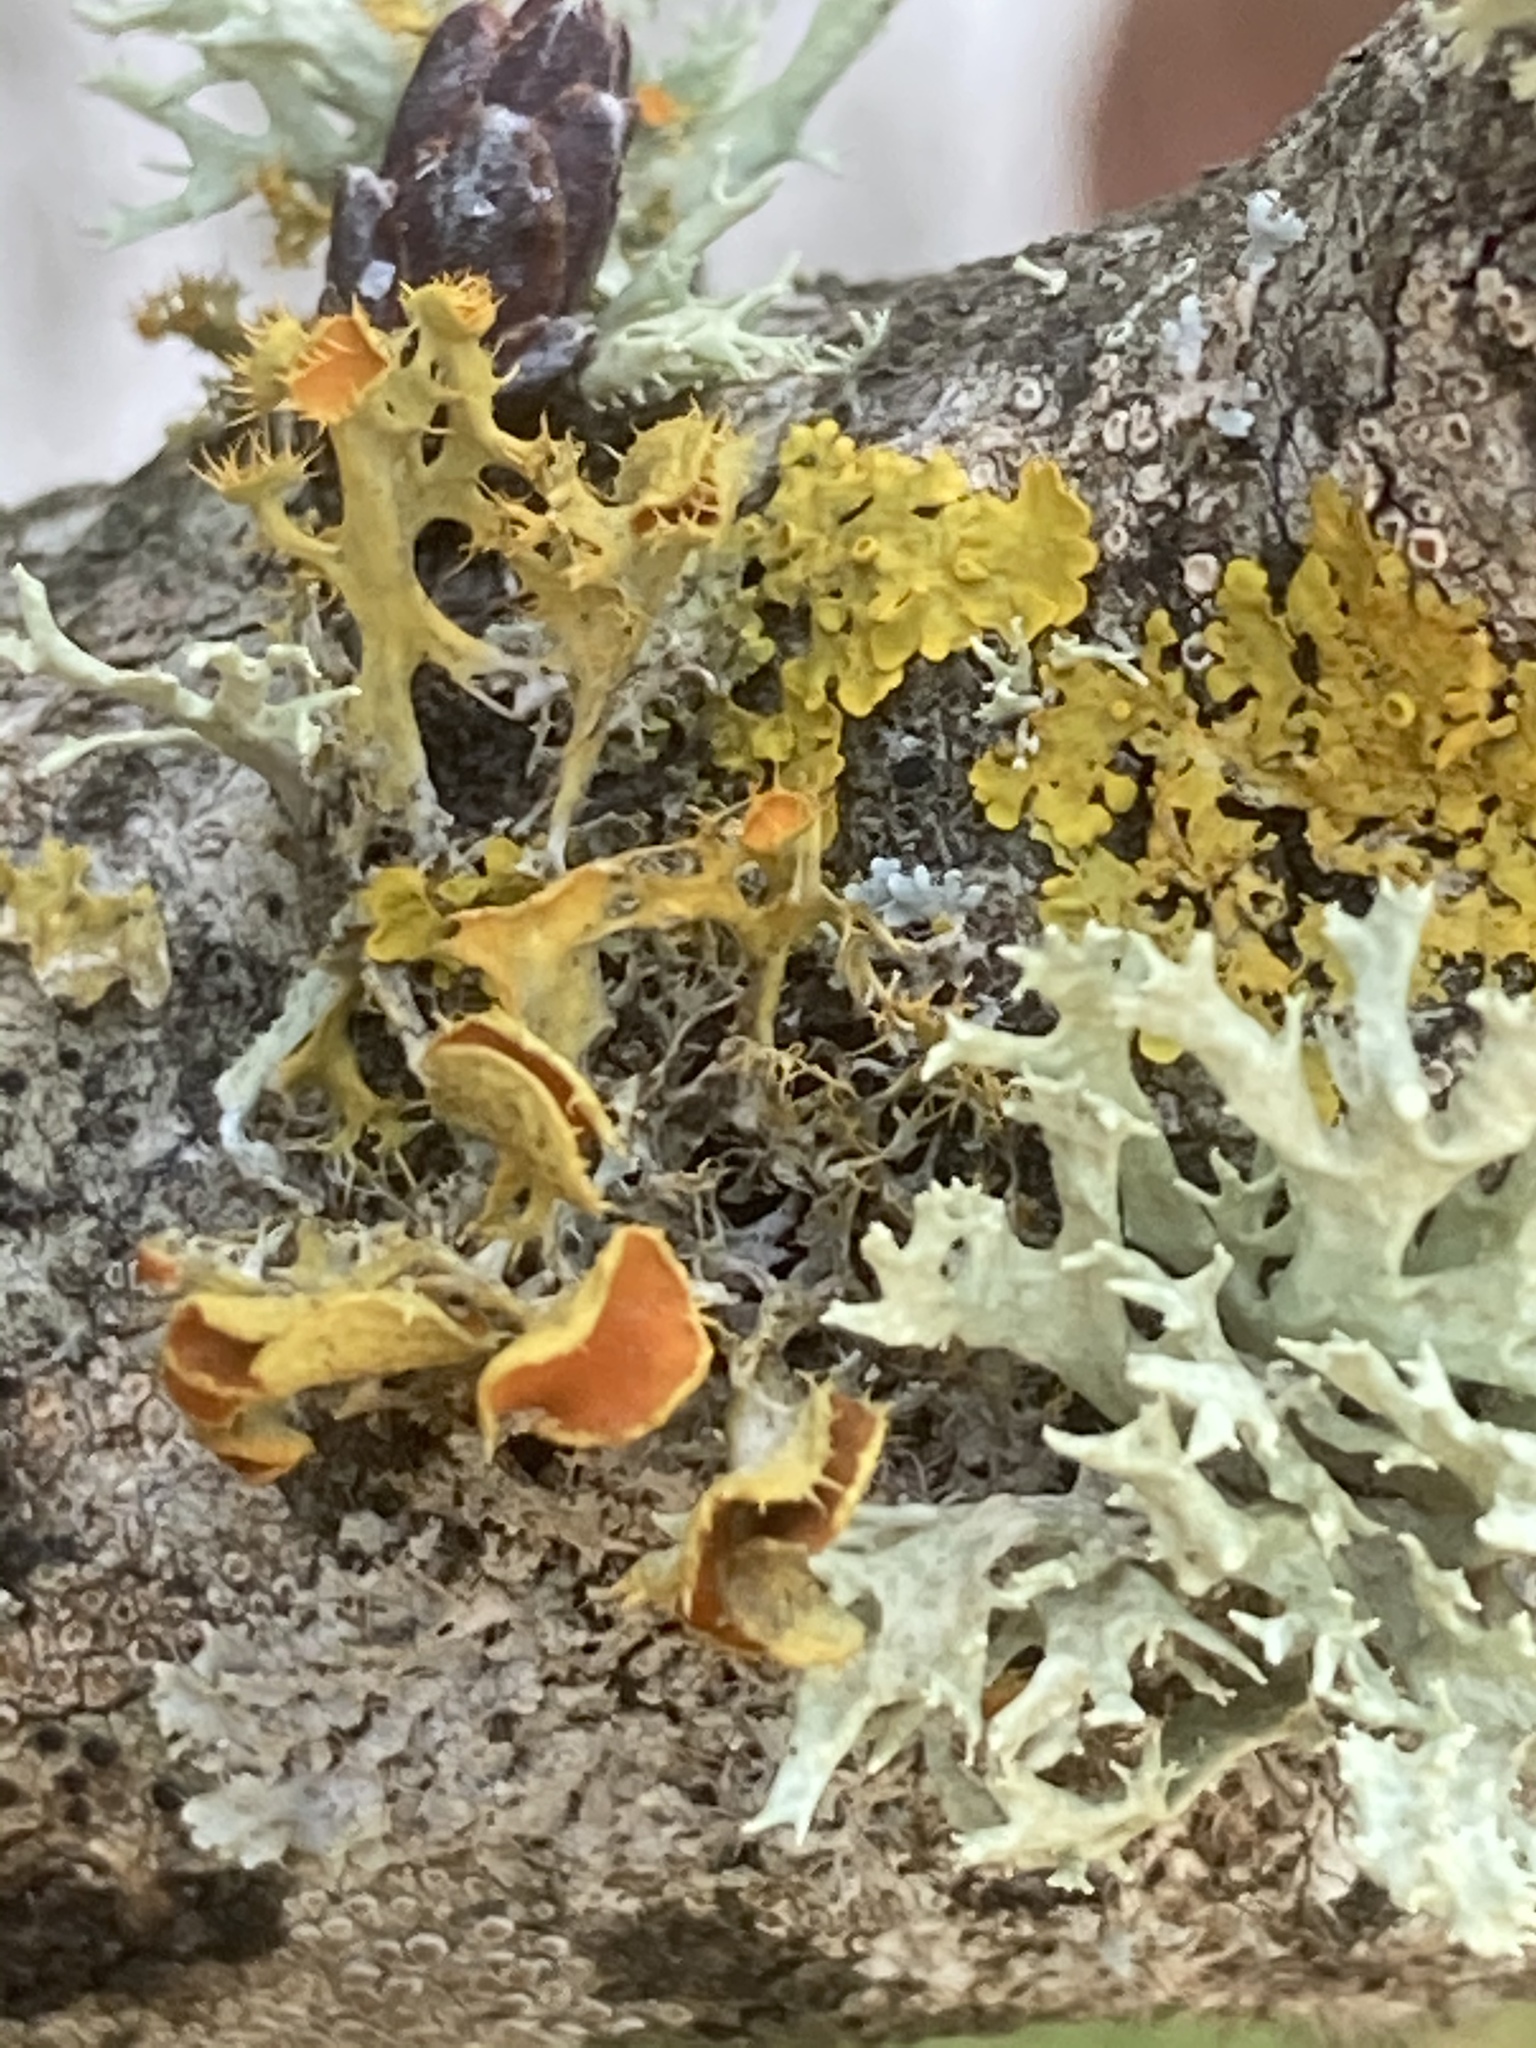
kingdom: Fungi
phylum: Ascomycota
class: Lecanoromycetes
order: Teloschistales
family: Teloschistaceae
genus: Niorma
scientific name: Niorma chrysophthalma
